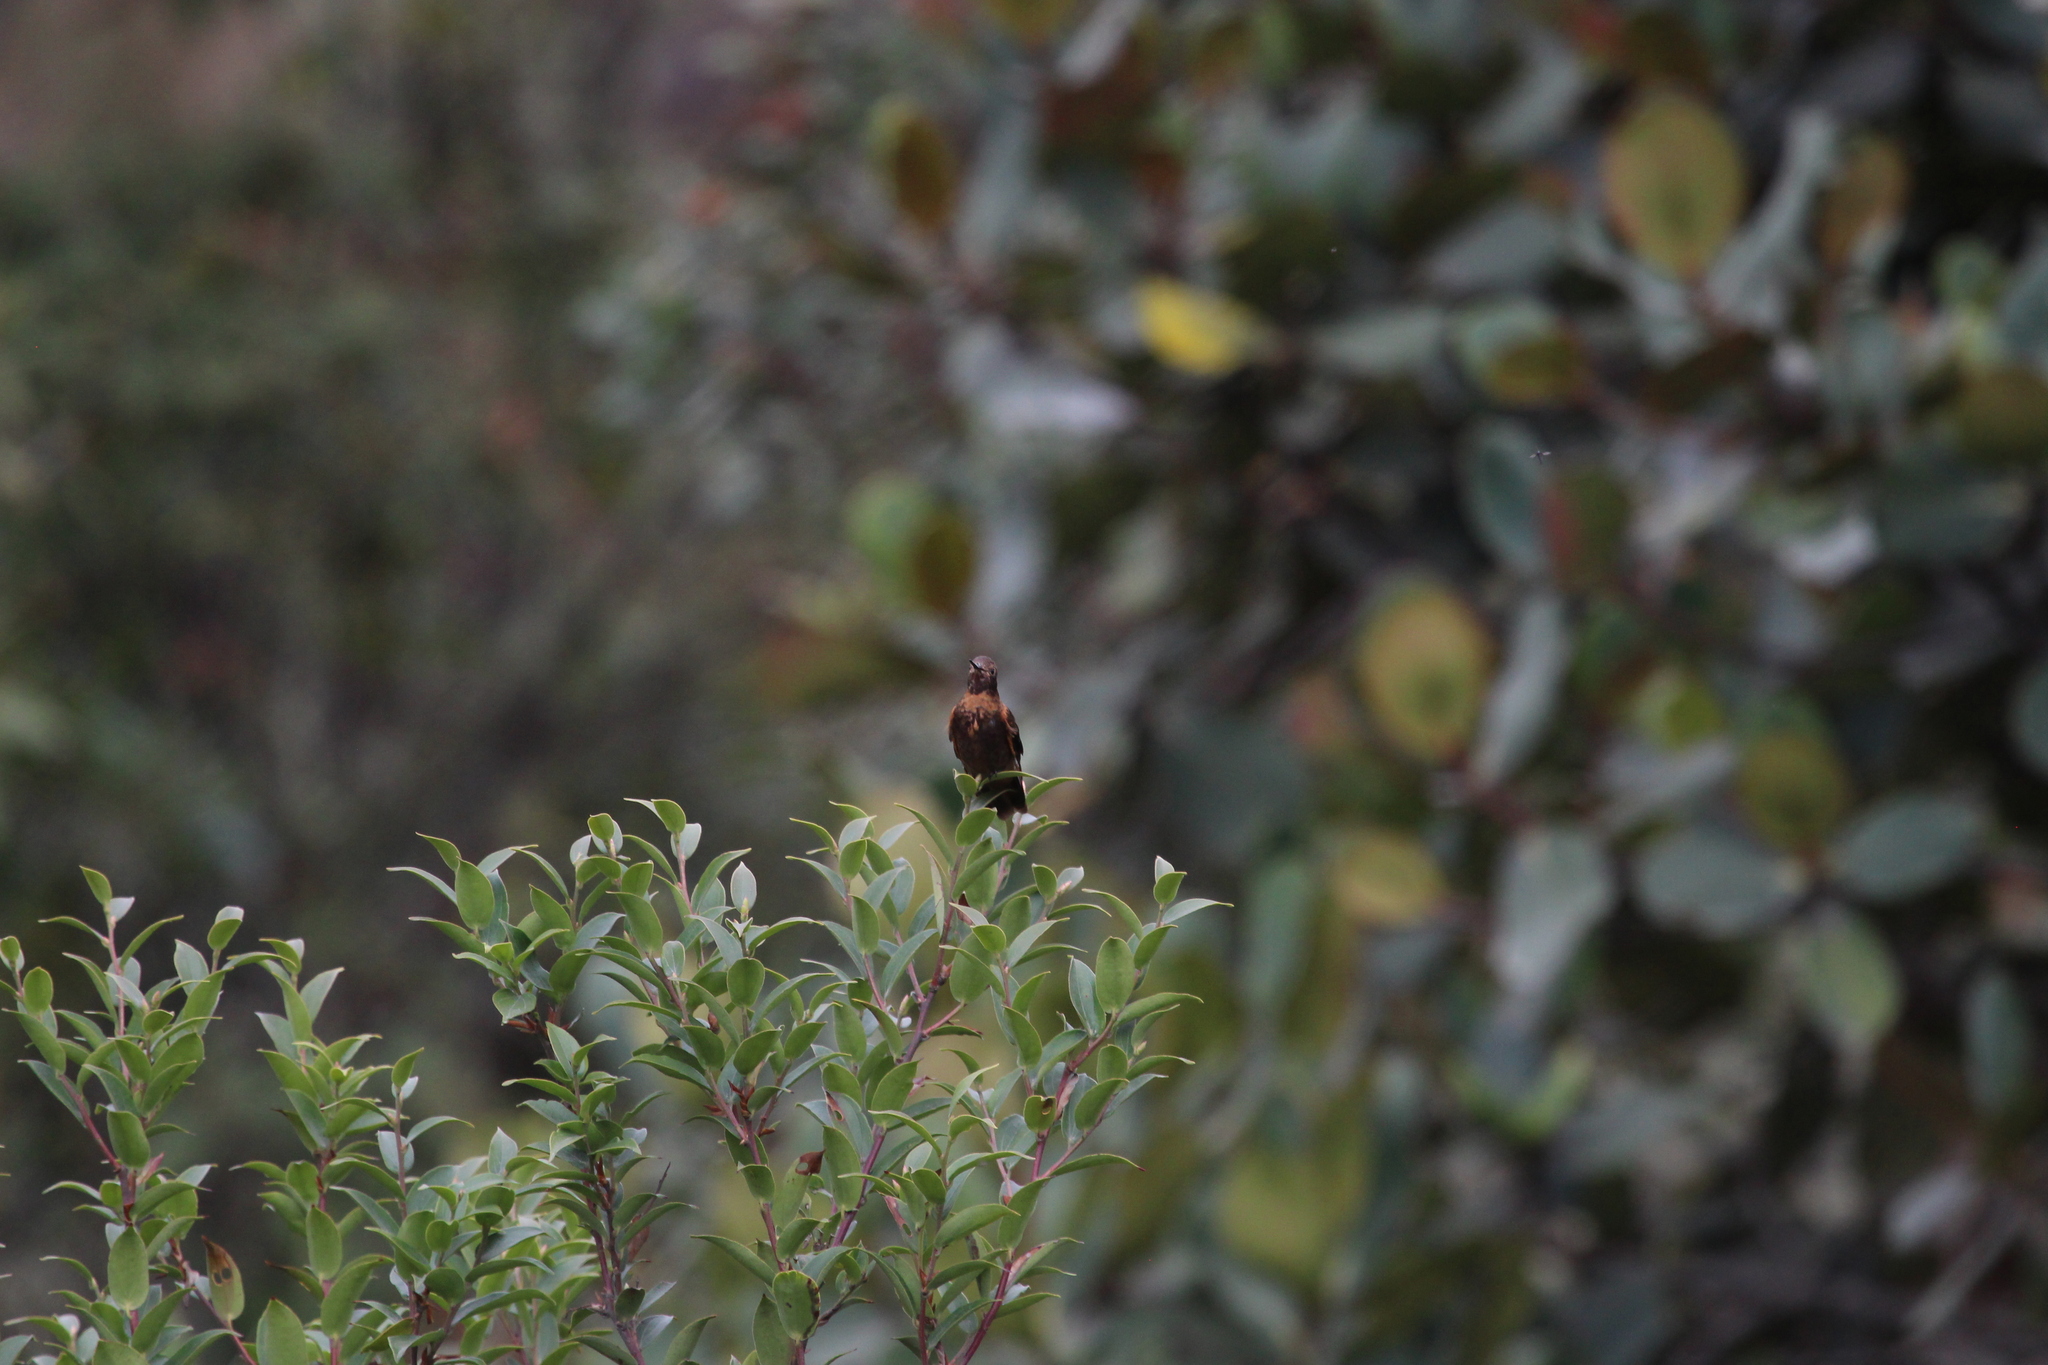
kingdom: Animalia
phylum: Chordata
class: Aves
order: Apodiformes
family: Trochilidae
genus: Aglaeactis
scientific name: Aglaeactis cupripennis
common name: Shining sunbeam
